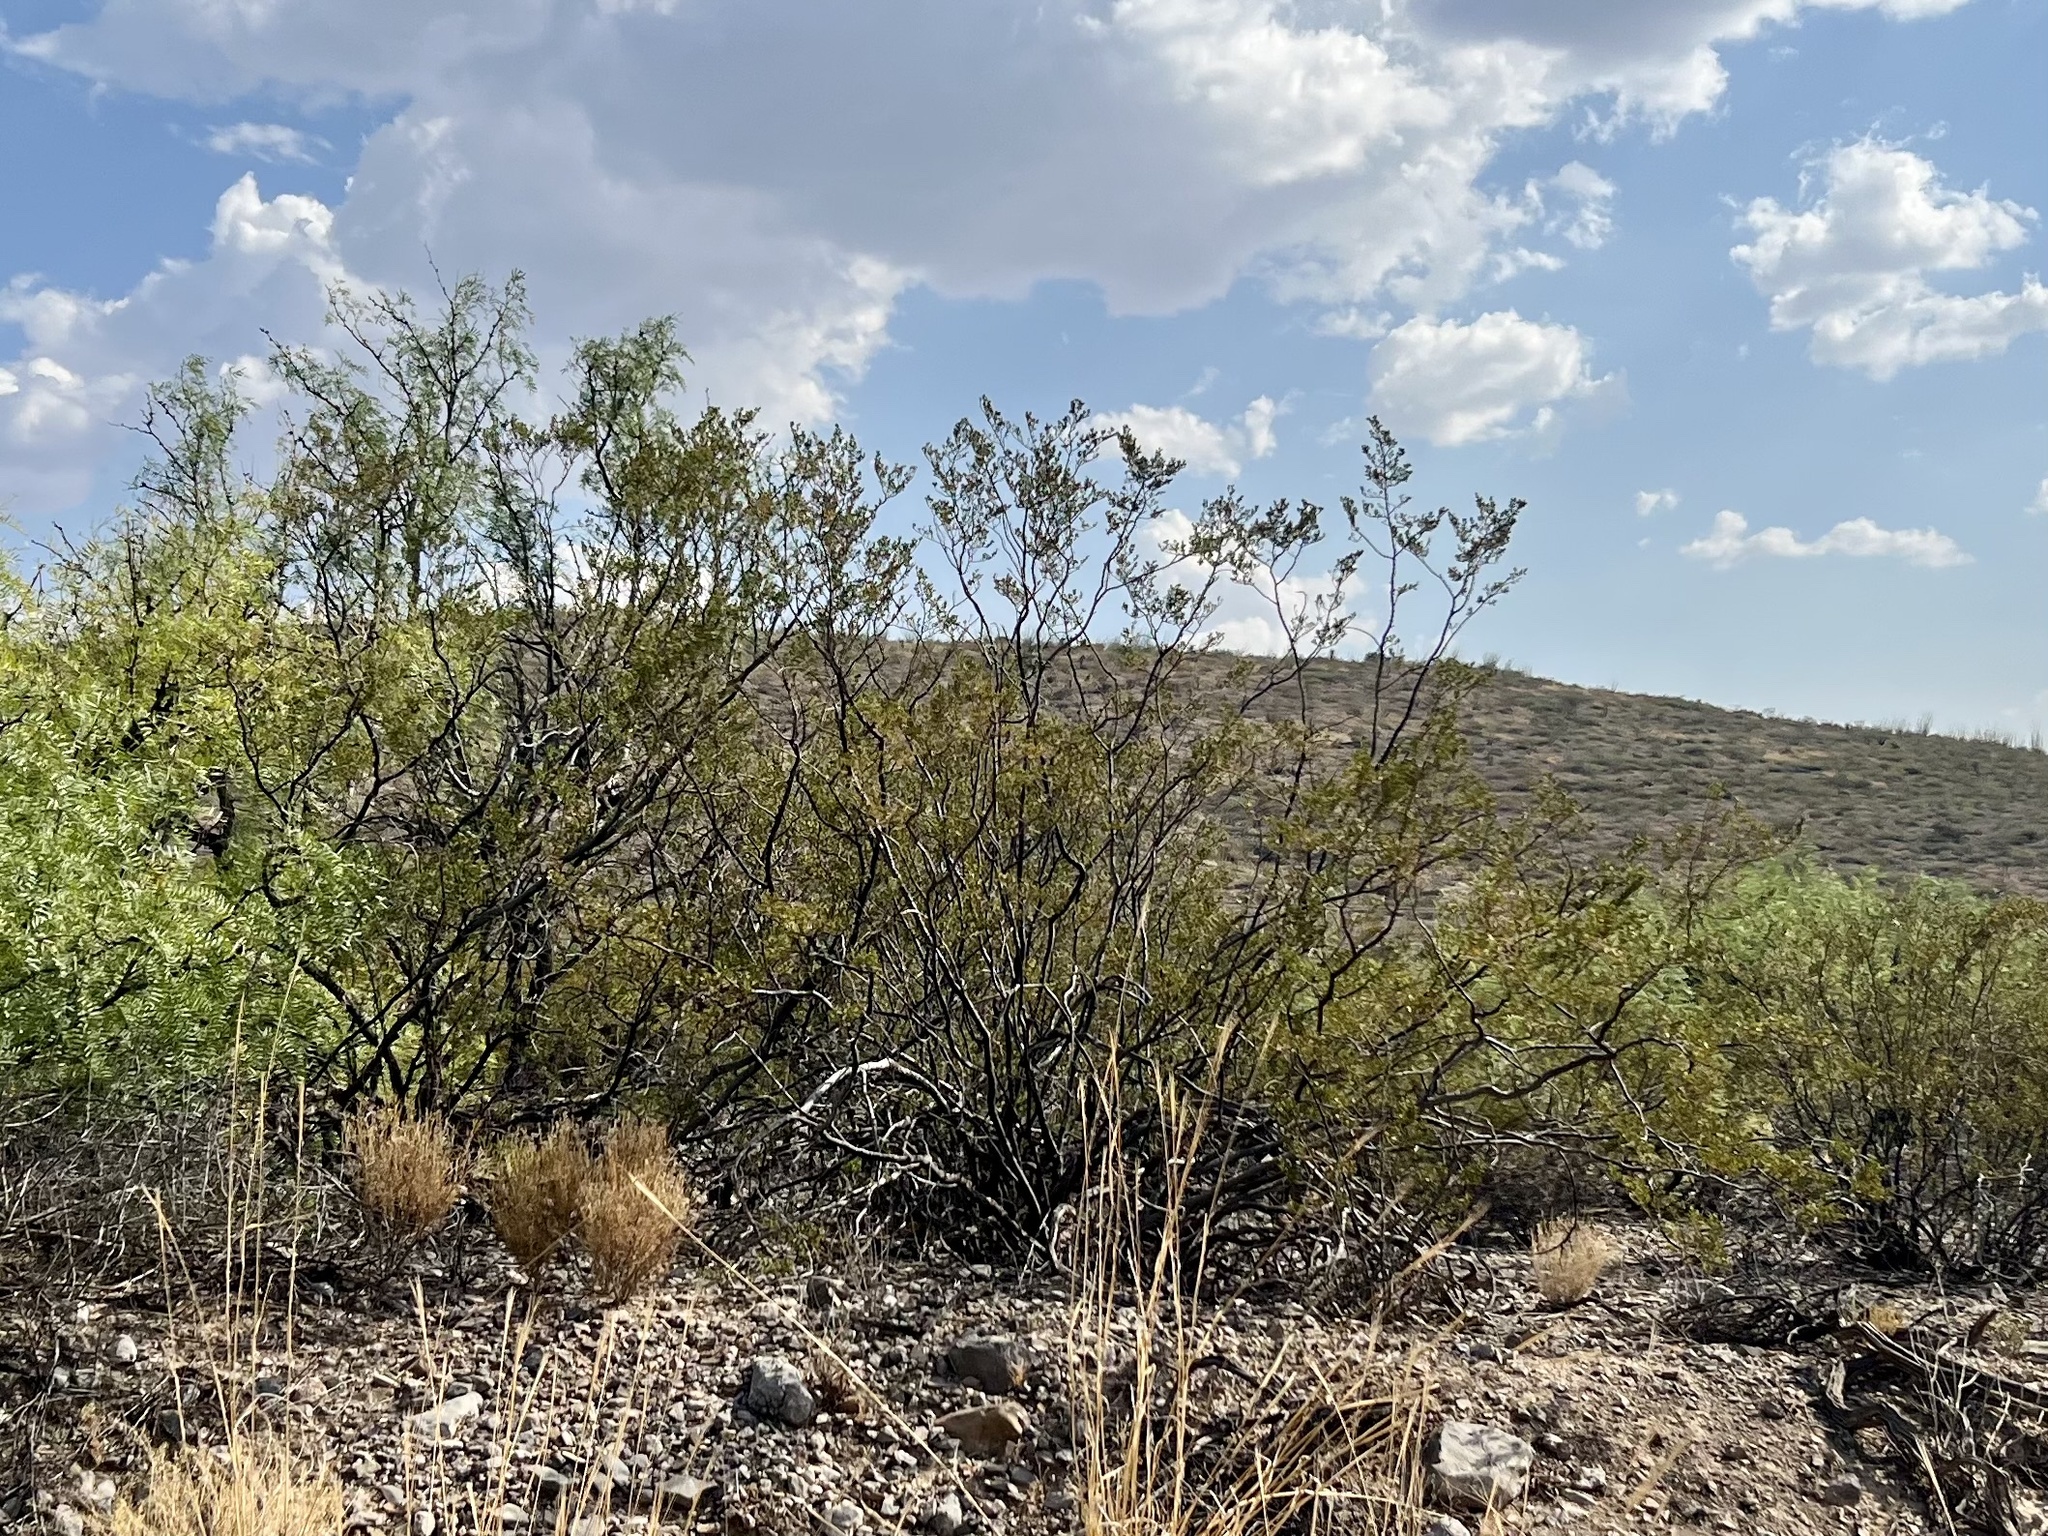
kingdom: Plantae
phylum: Tracheophyta
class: Magnoliopsida
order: Zygophyllales
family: Zygophyllaceae
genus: Larrea
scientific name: Larrea tridentata
